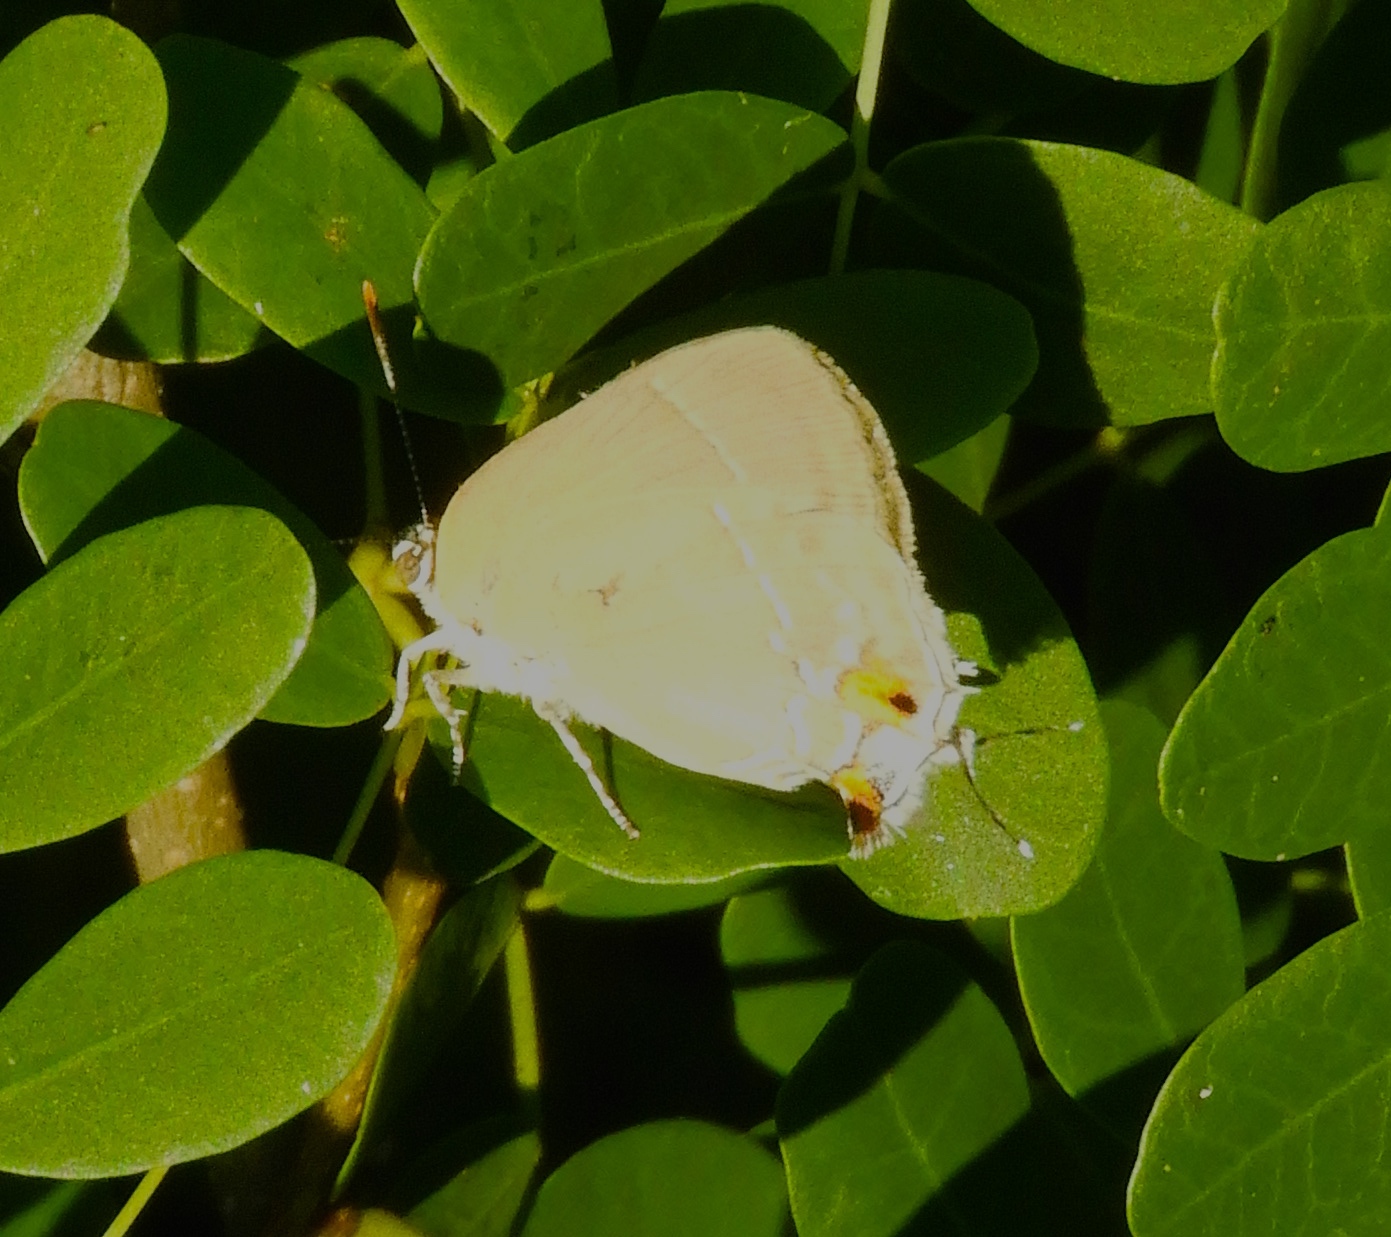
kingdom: Animalia
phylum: Arthropoda
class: Insecta
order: Lepidoptera
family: Lycaenidae
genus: Rekoa
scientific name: Rekoa
